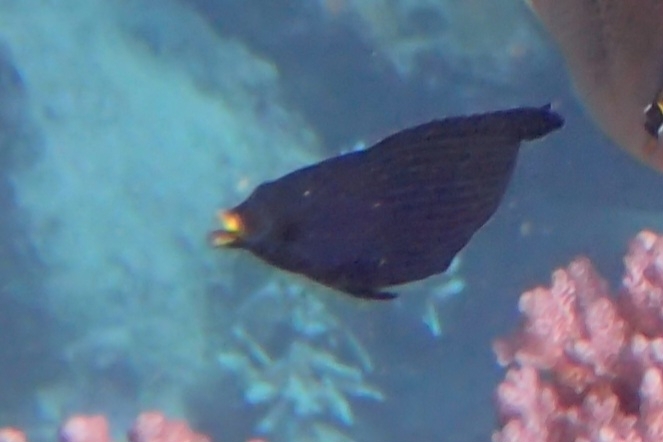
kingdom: Animalia
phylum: Chordata
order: Perciformes
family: Labridae
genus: Labrichthys
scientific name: Labrichthys unilineatus
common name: Onelined wrasse
